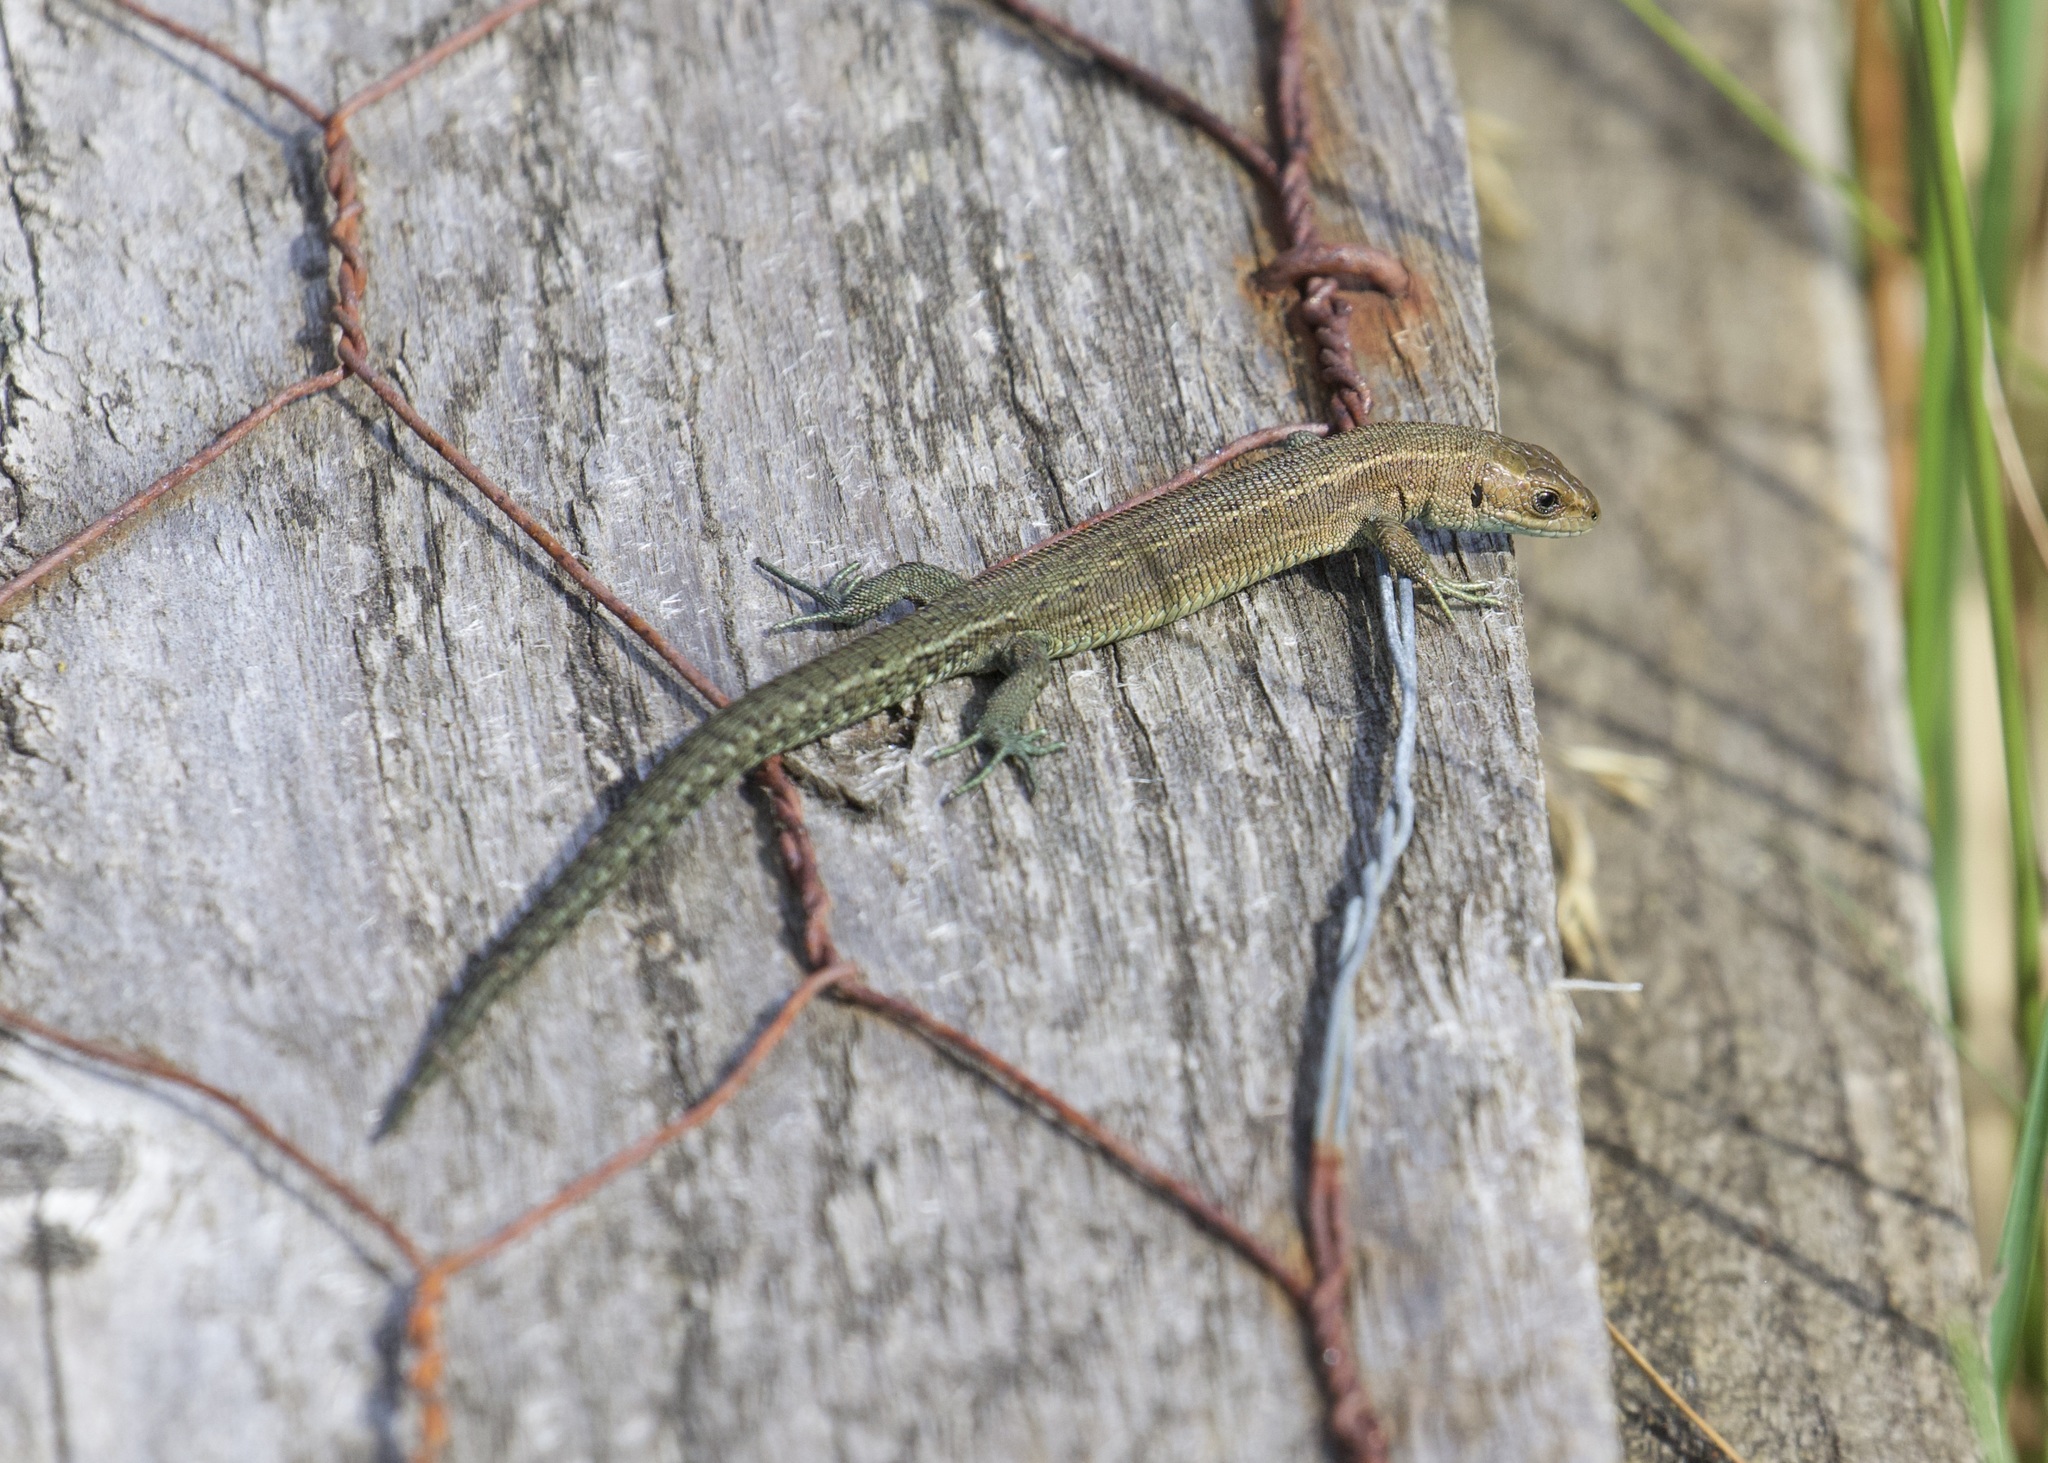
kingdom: Animalia
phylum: Chordata
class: Squamata
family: Lacertidae
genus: Zootoca
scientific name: Zootoca vivipara
